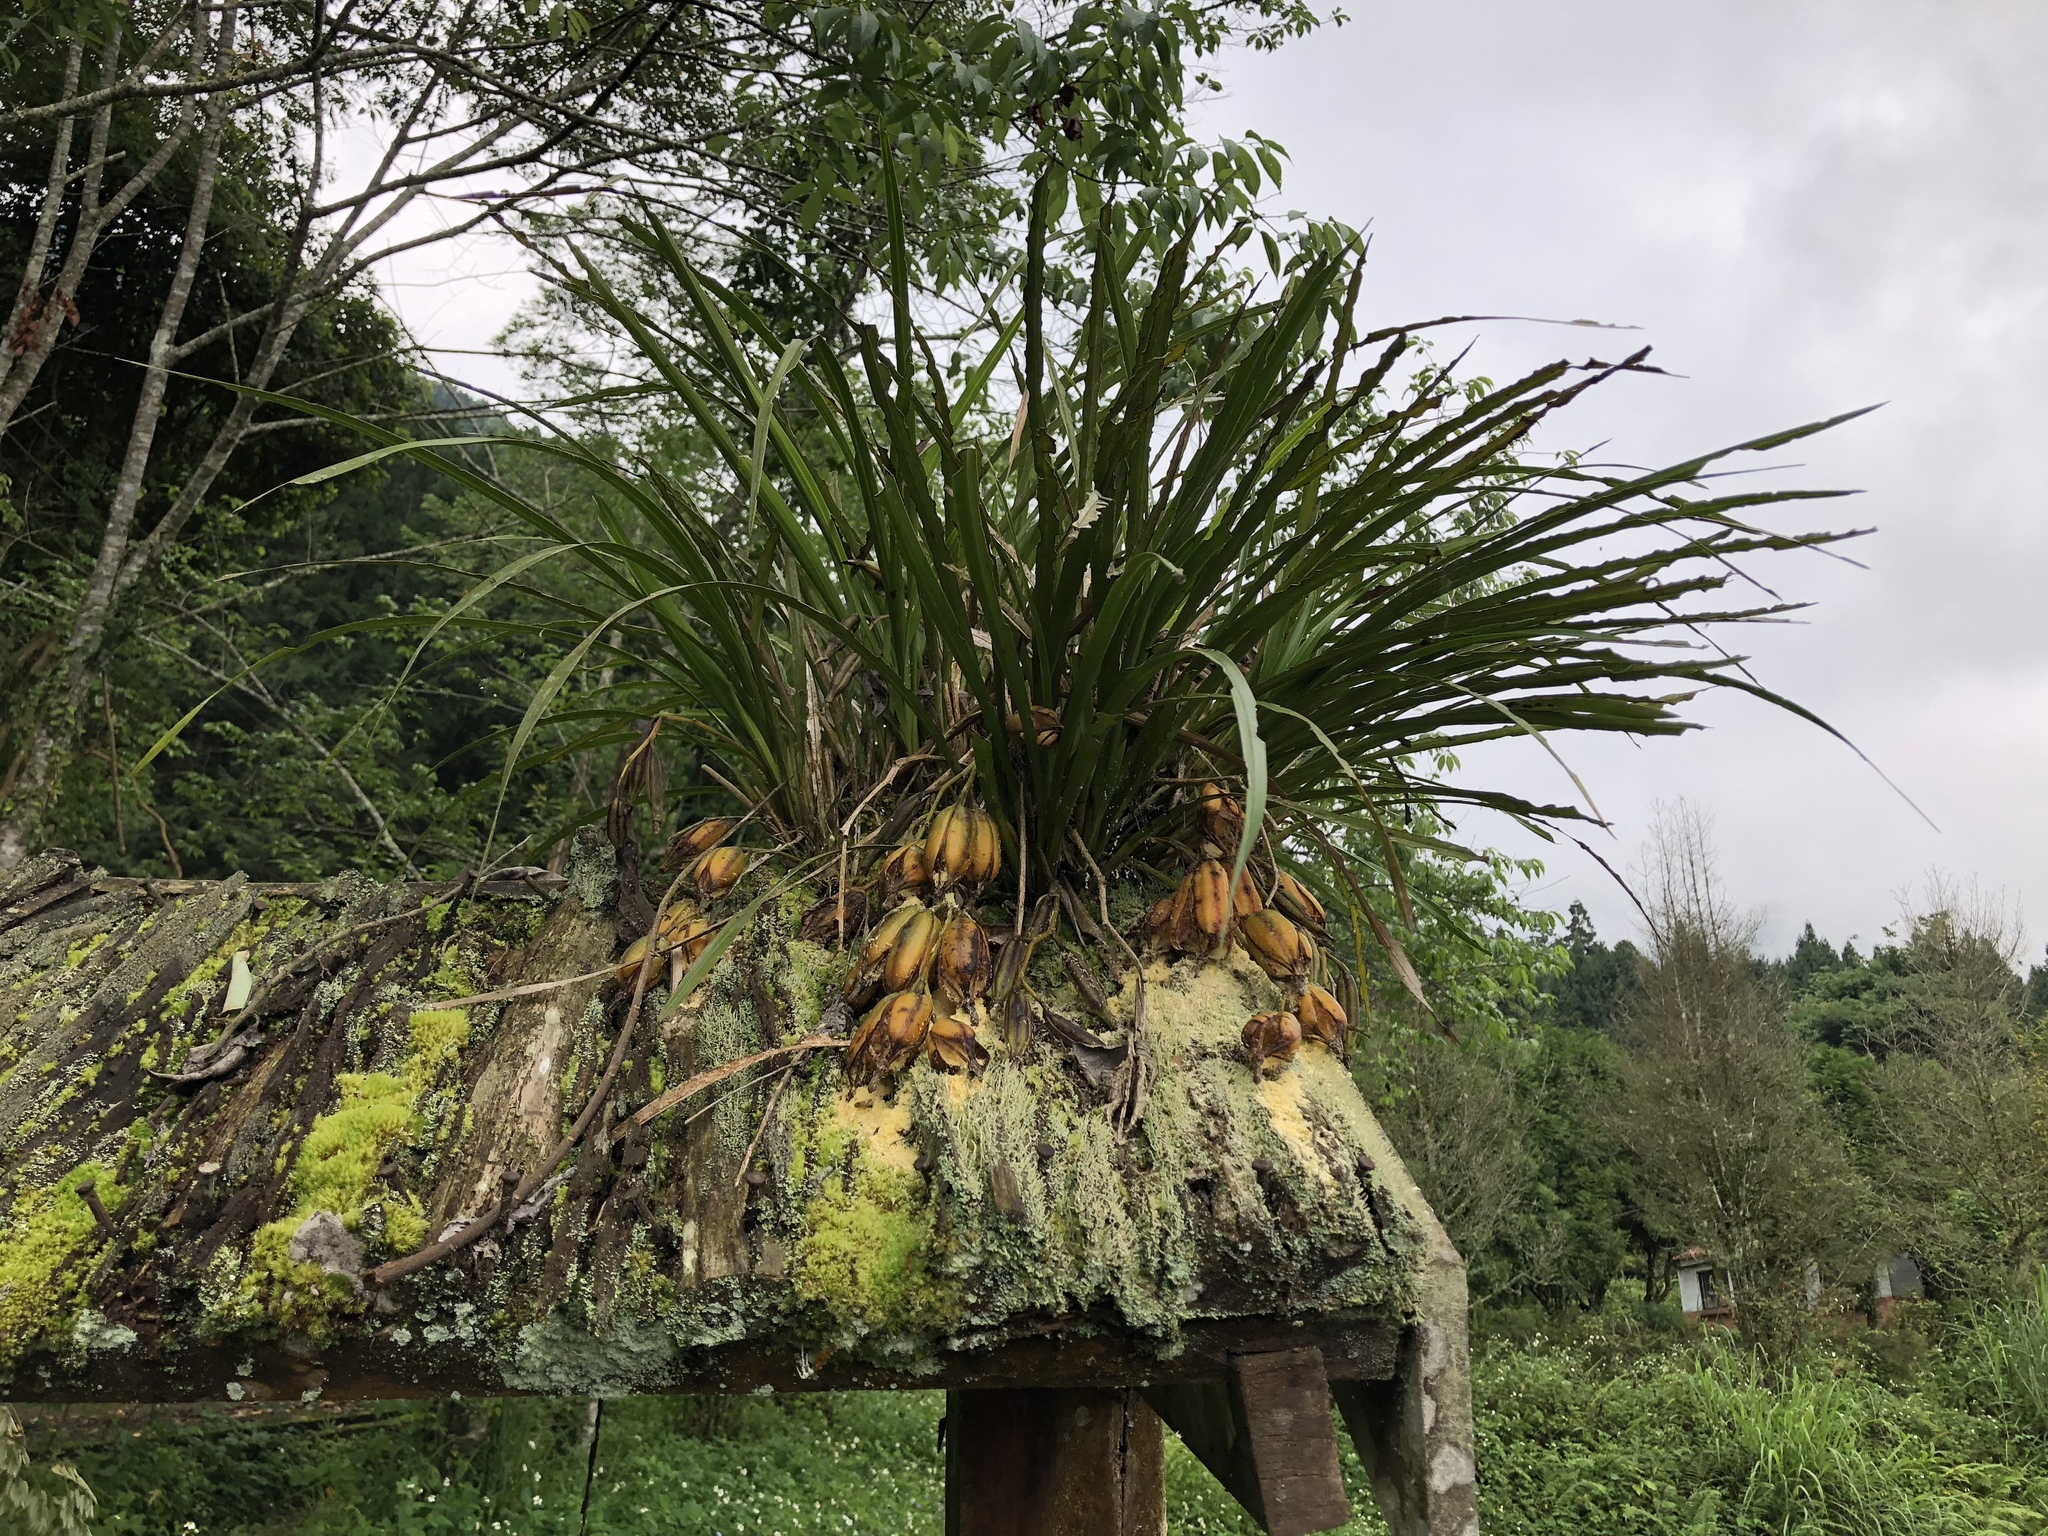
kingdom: Plantae
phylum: Tracheophyta
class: Liliopsida
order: Asparagales
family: Orchidaceae
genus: Cymbidium
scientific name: Cymbidium dayanum
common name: Orchid
